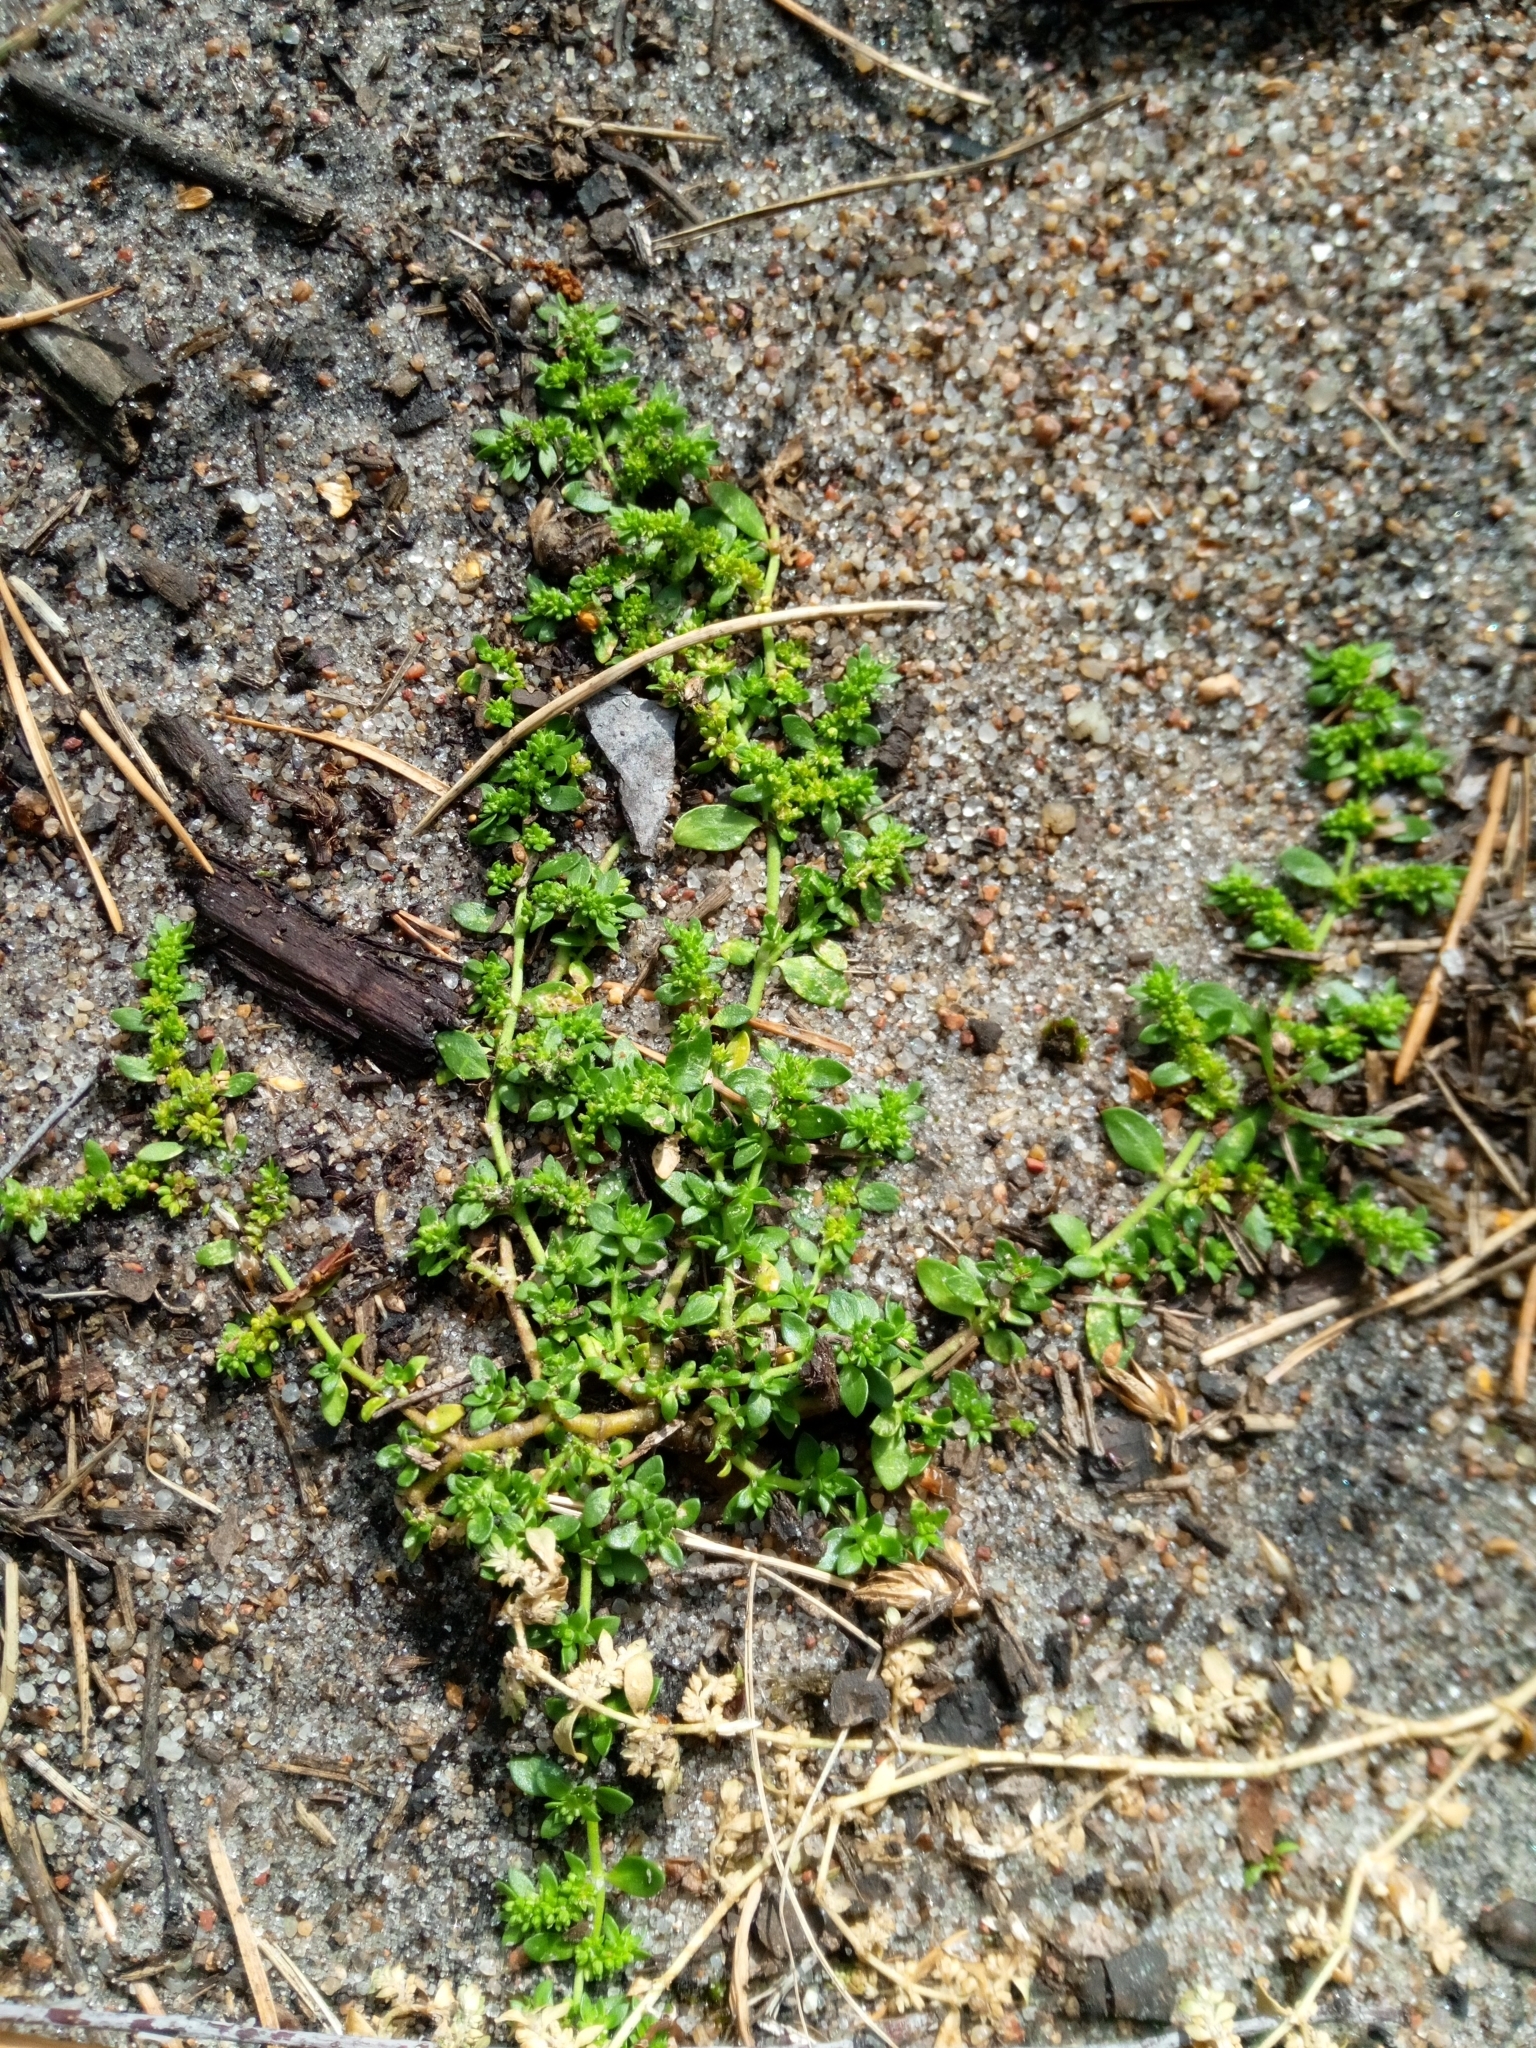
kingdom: Plantae
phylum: Tracheophyta
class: Magnoliopsida
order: Caryophyllales
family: Caryophyllaceae
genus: Herniaria
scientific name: Herniaria glabra
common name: Smooth rupturewort
